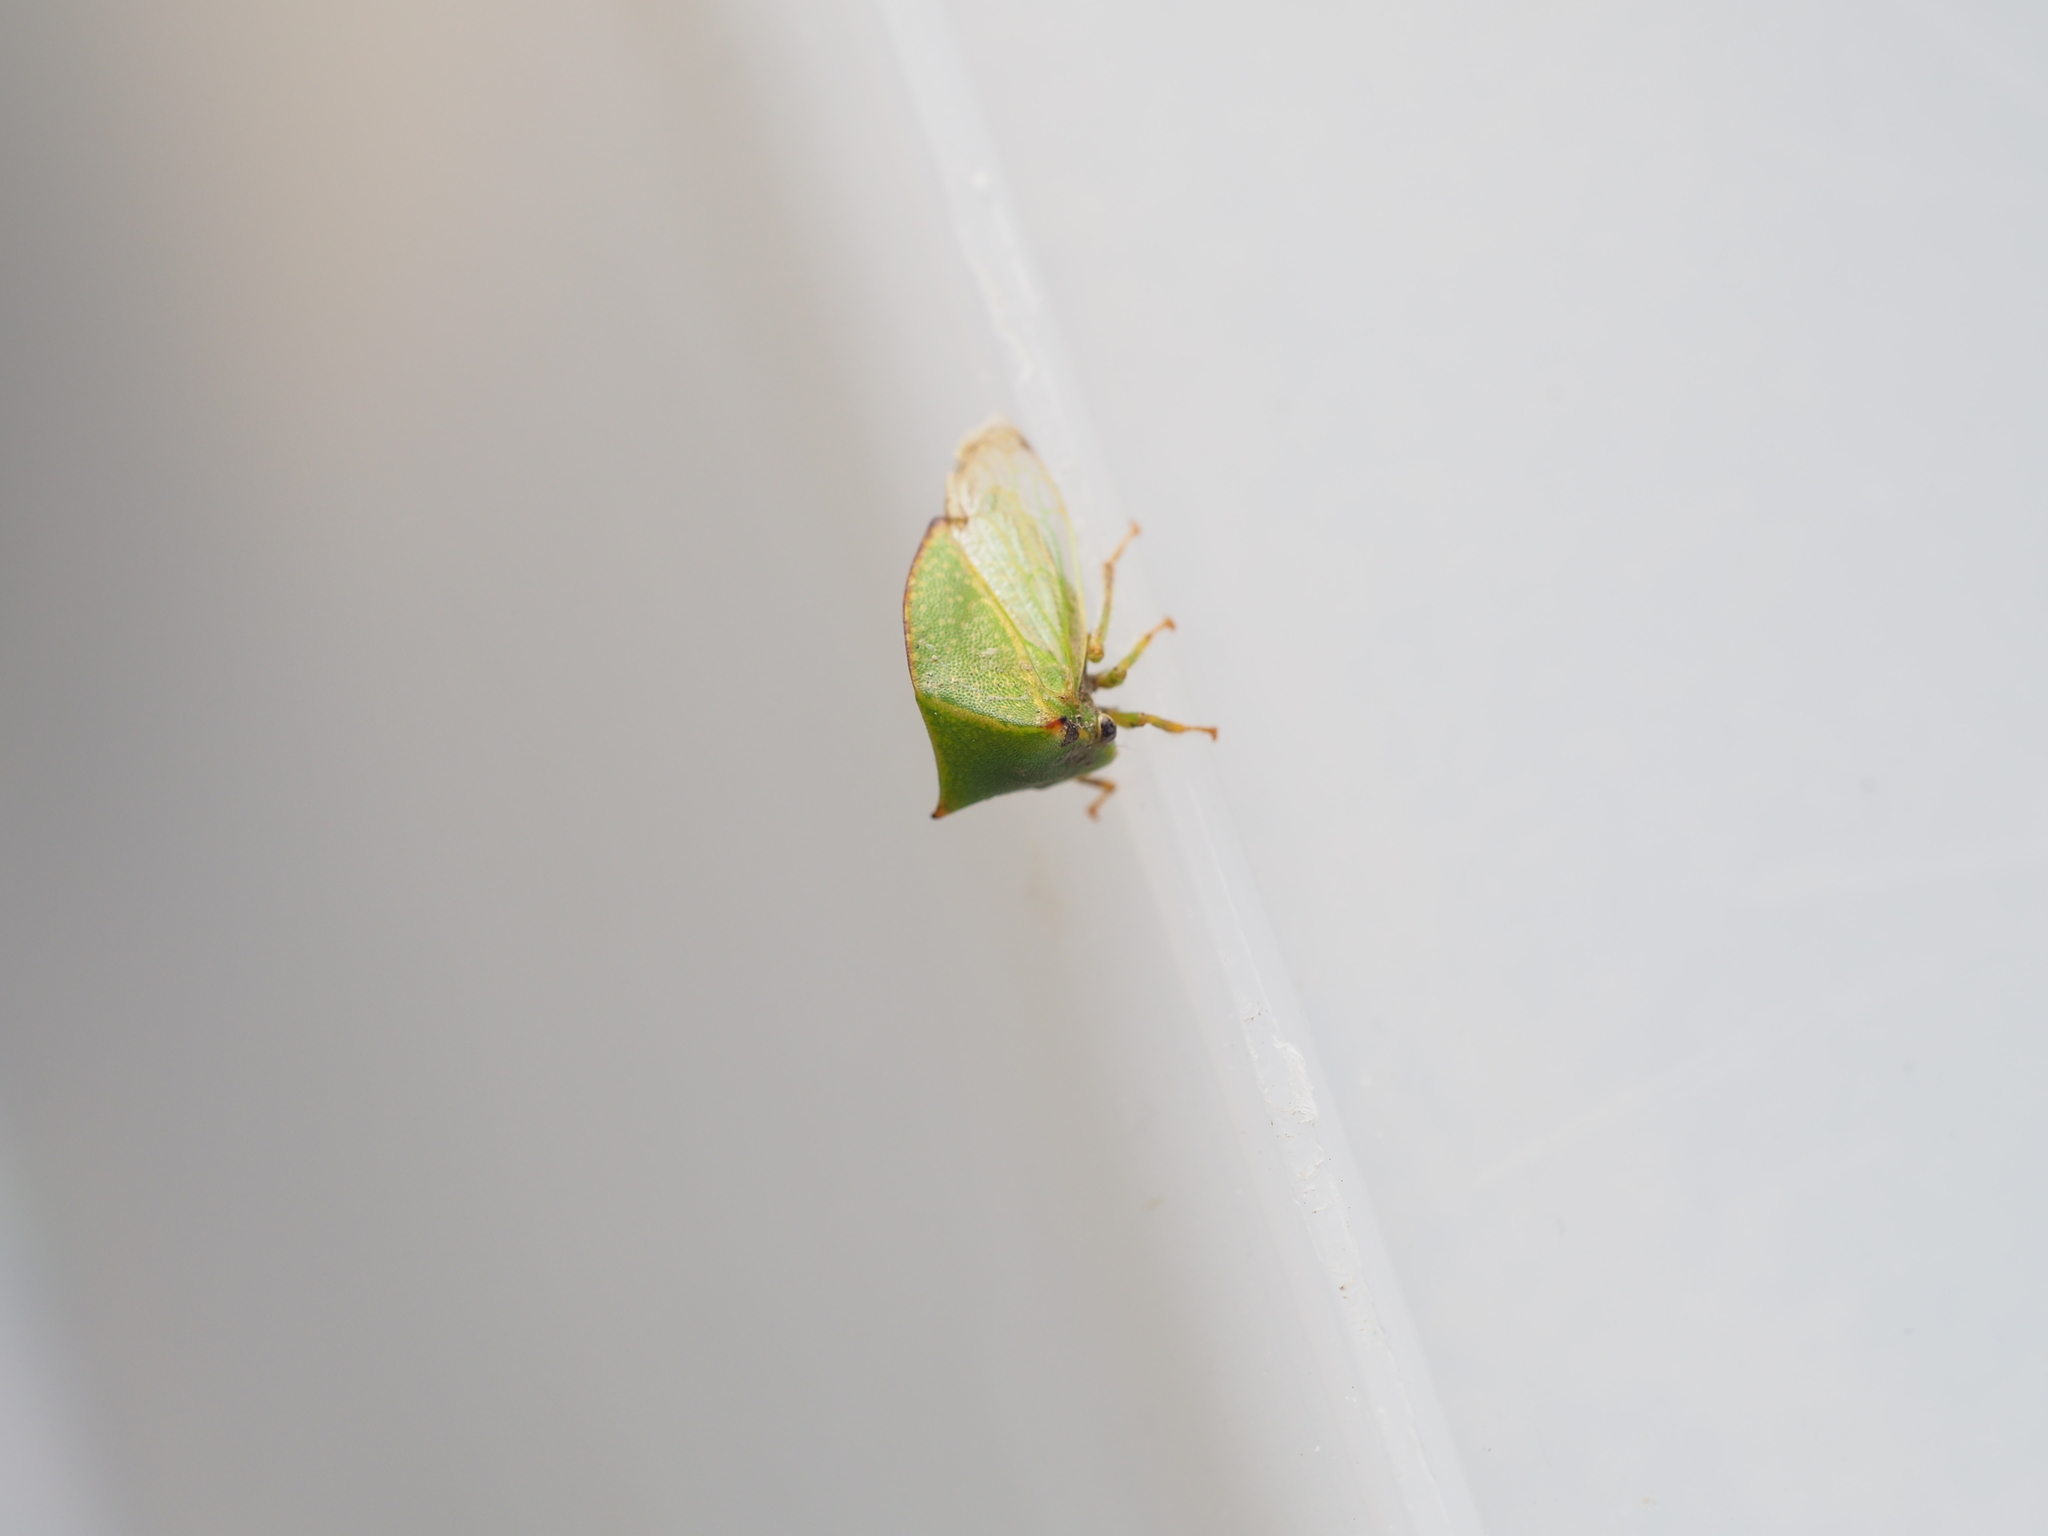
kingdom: Animalia
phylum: Arthropoda
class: Insecta
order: Hemiptera
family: Membracidae
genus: Stictocephala
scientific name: Stictocephala bisonia
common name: American buffalo treehopper
